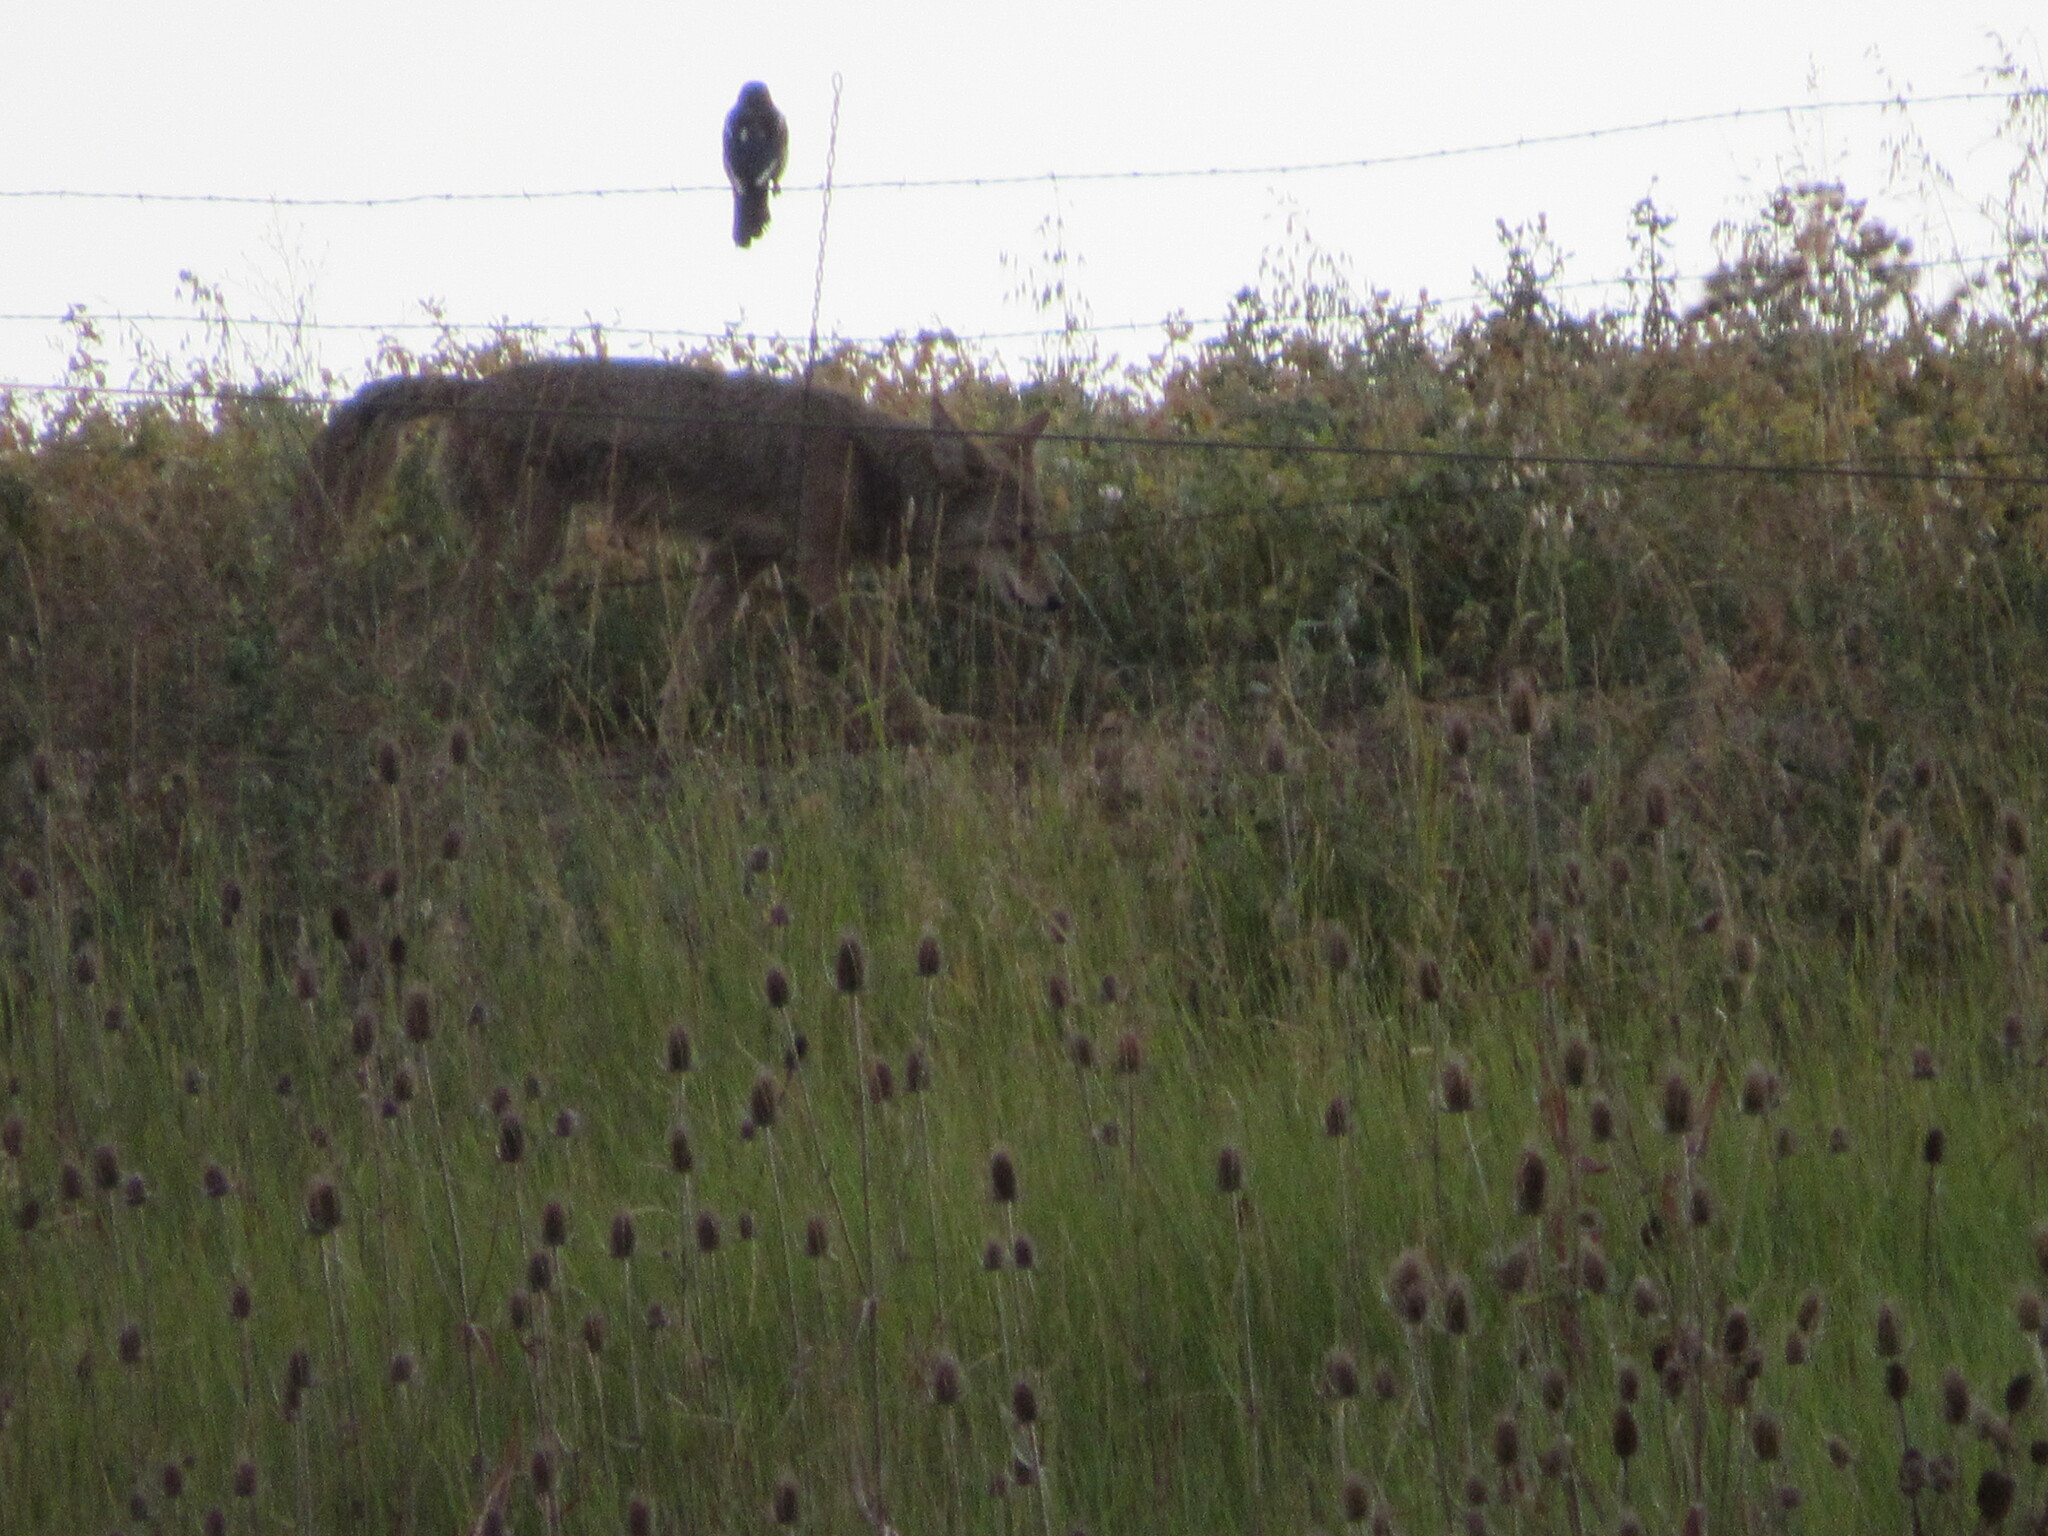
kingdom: Animalia
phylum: Chordata
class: Mammalia
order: Carnivora
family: Canidae
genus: Canis
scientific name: Canis latrans
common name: Coyote
